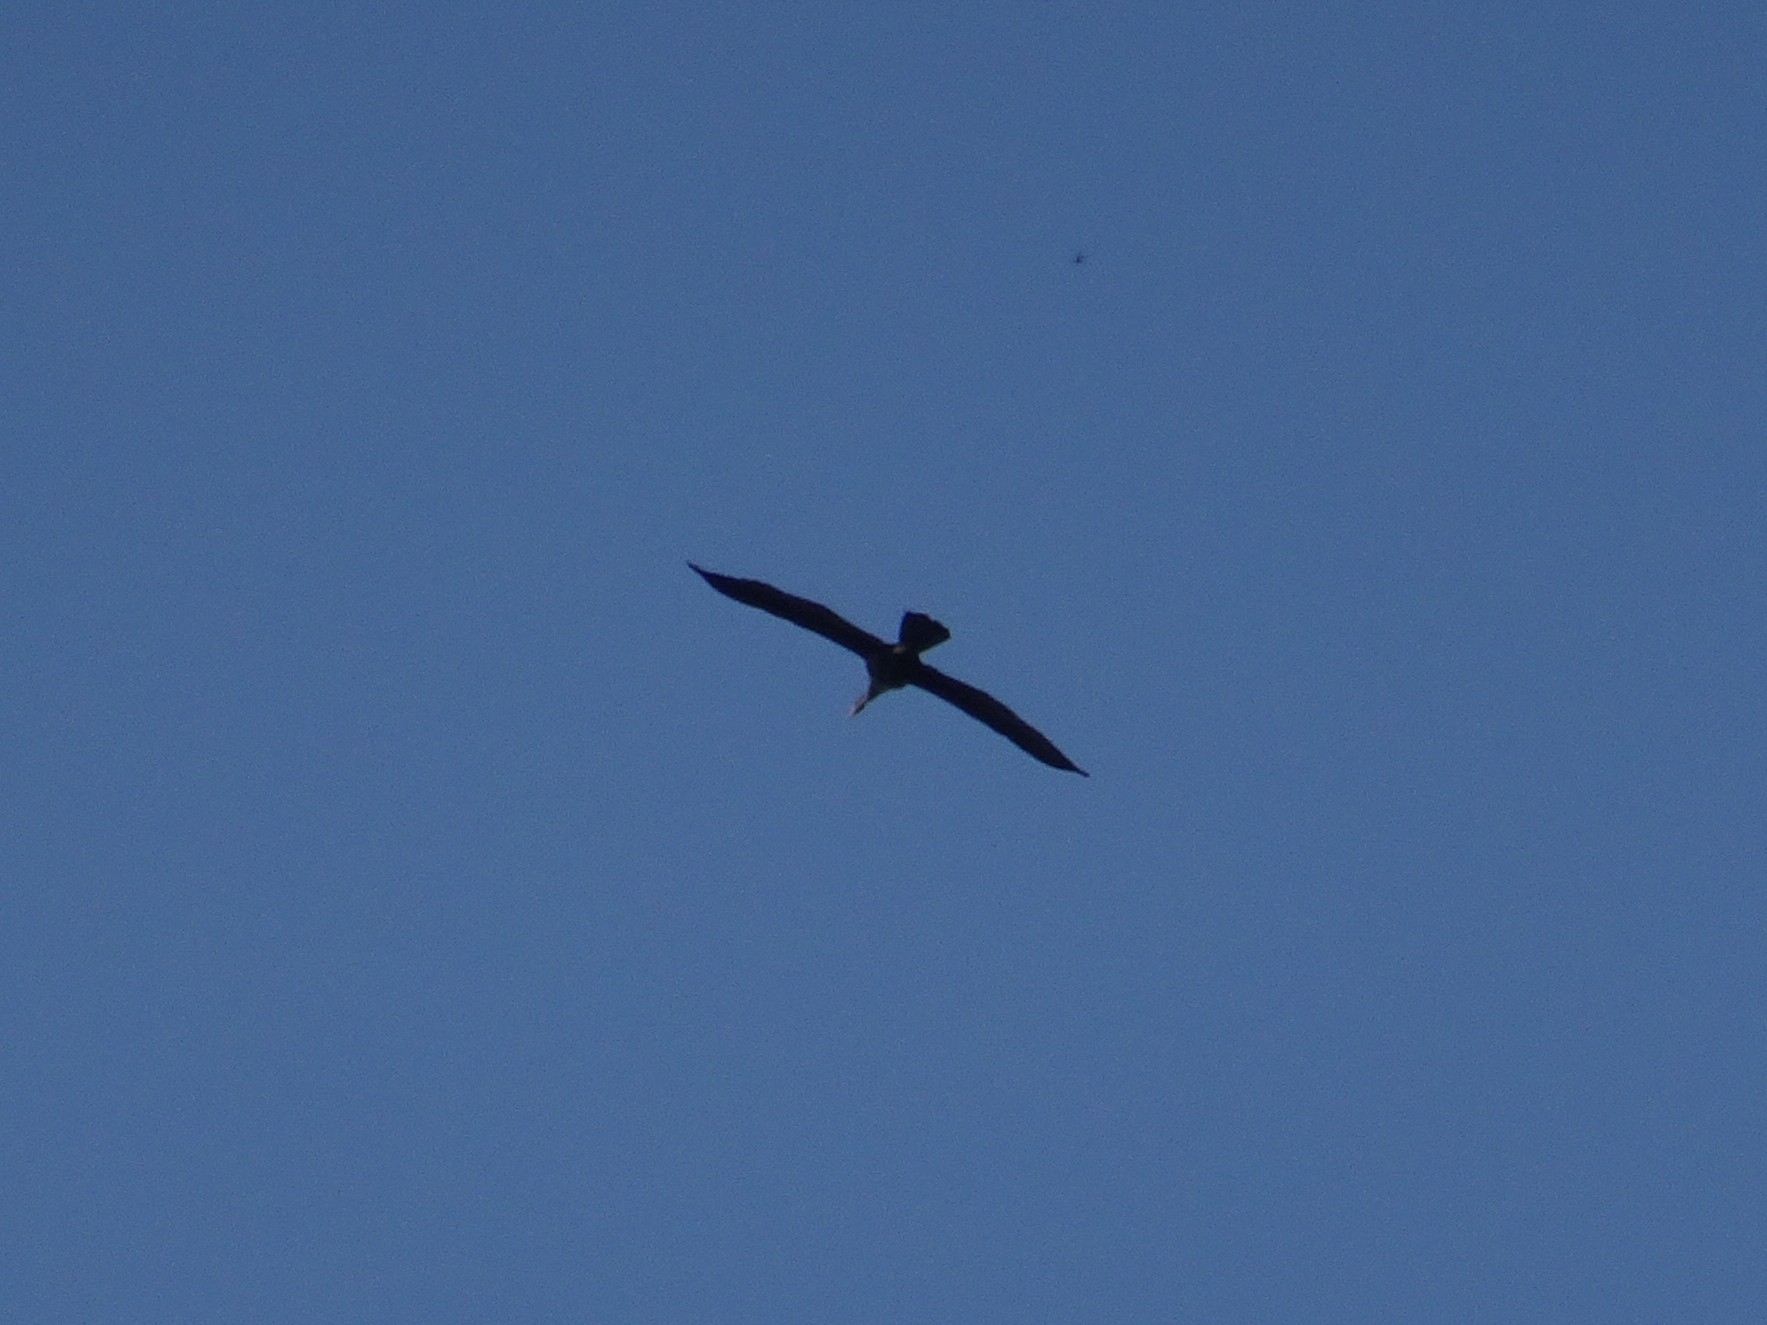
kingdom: Animalia
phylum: Chordata
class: Aves
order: Suliformes
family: Anhingidae
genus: Anhinga
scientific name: Anhinga anhinga
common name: Anhinga
